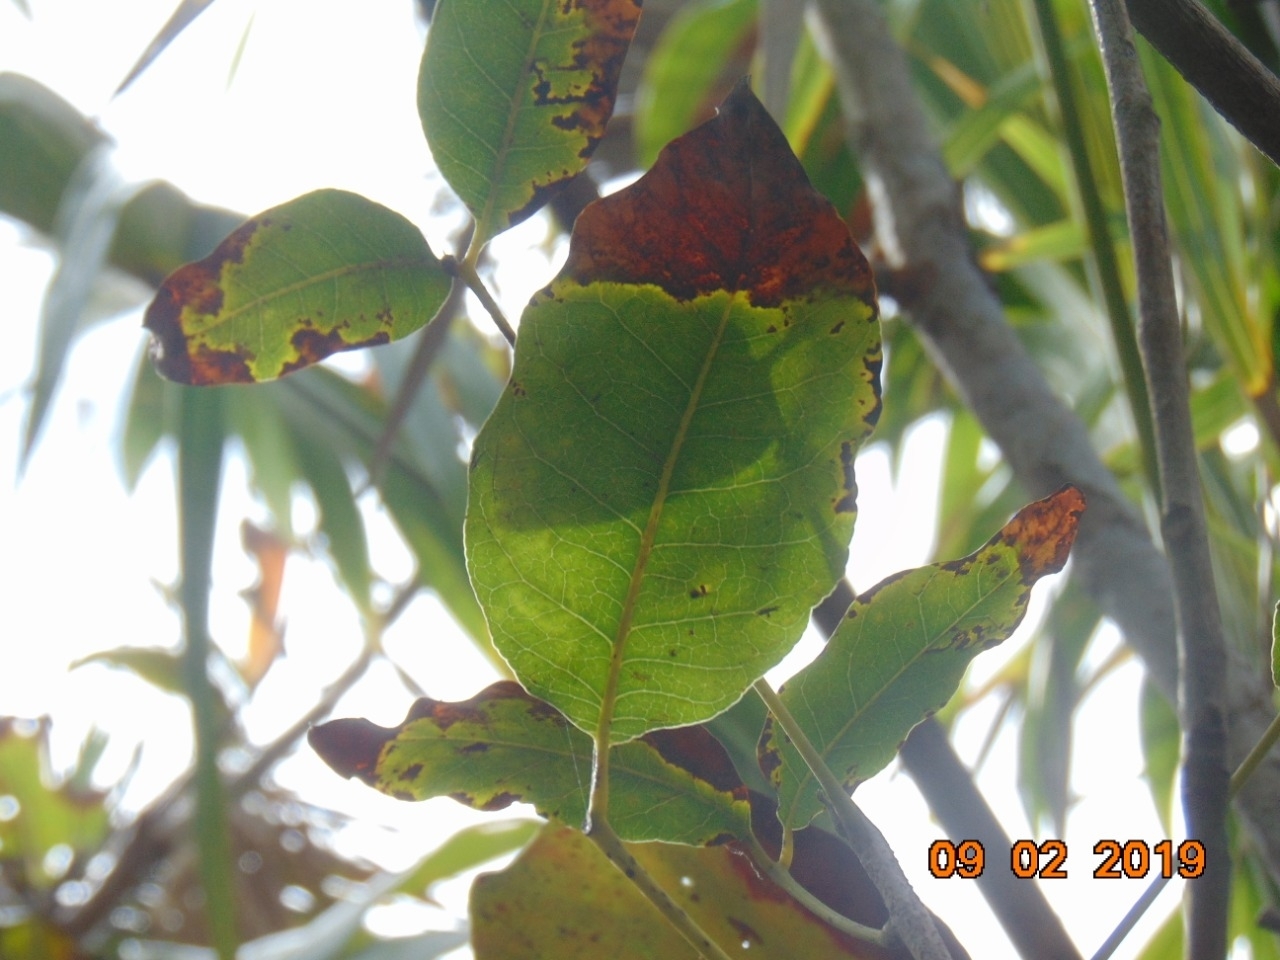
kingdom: Plantae
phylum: Tracheophyta
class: Magnoliopsida
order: Sapindales
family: Anacardiaceae
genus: Metopium
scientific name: Metopium brownei
